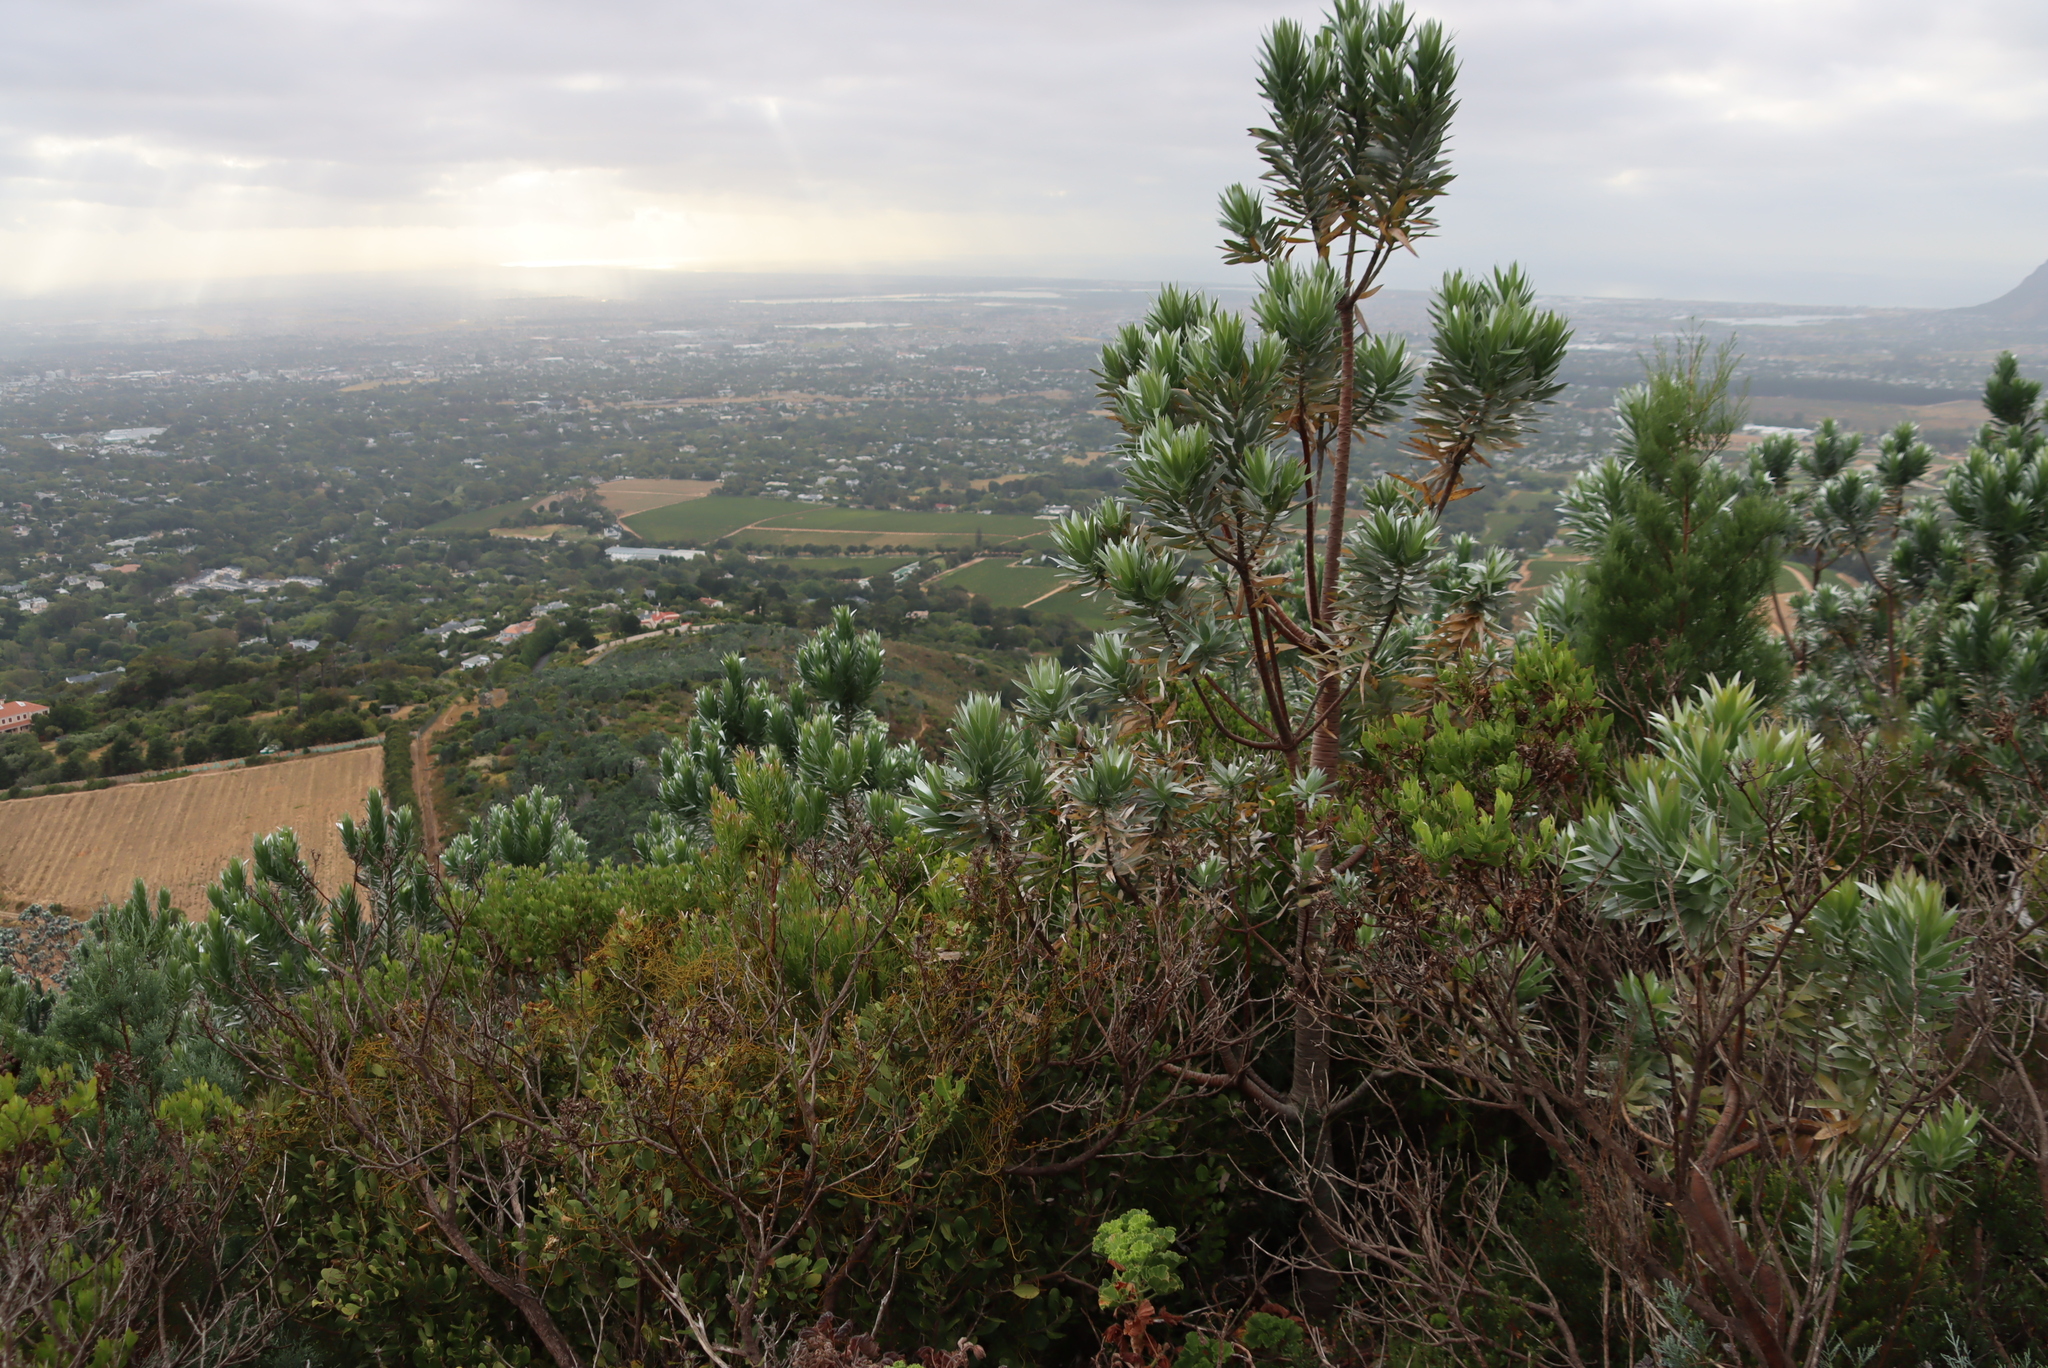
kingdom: Plantae
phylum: Tracheophyta
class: Magnoliopsida
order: Proteales
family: Proteaceae
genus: Leucadendron
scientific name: Leucadendron argenteum
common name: Cape silver tree
